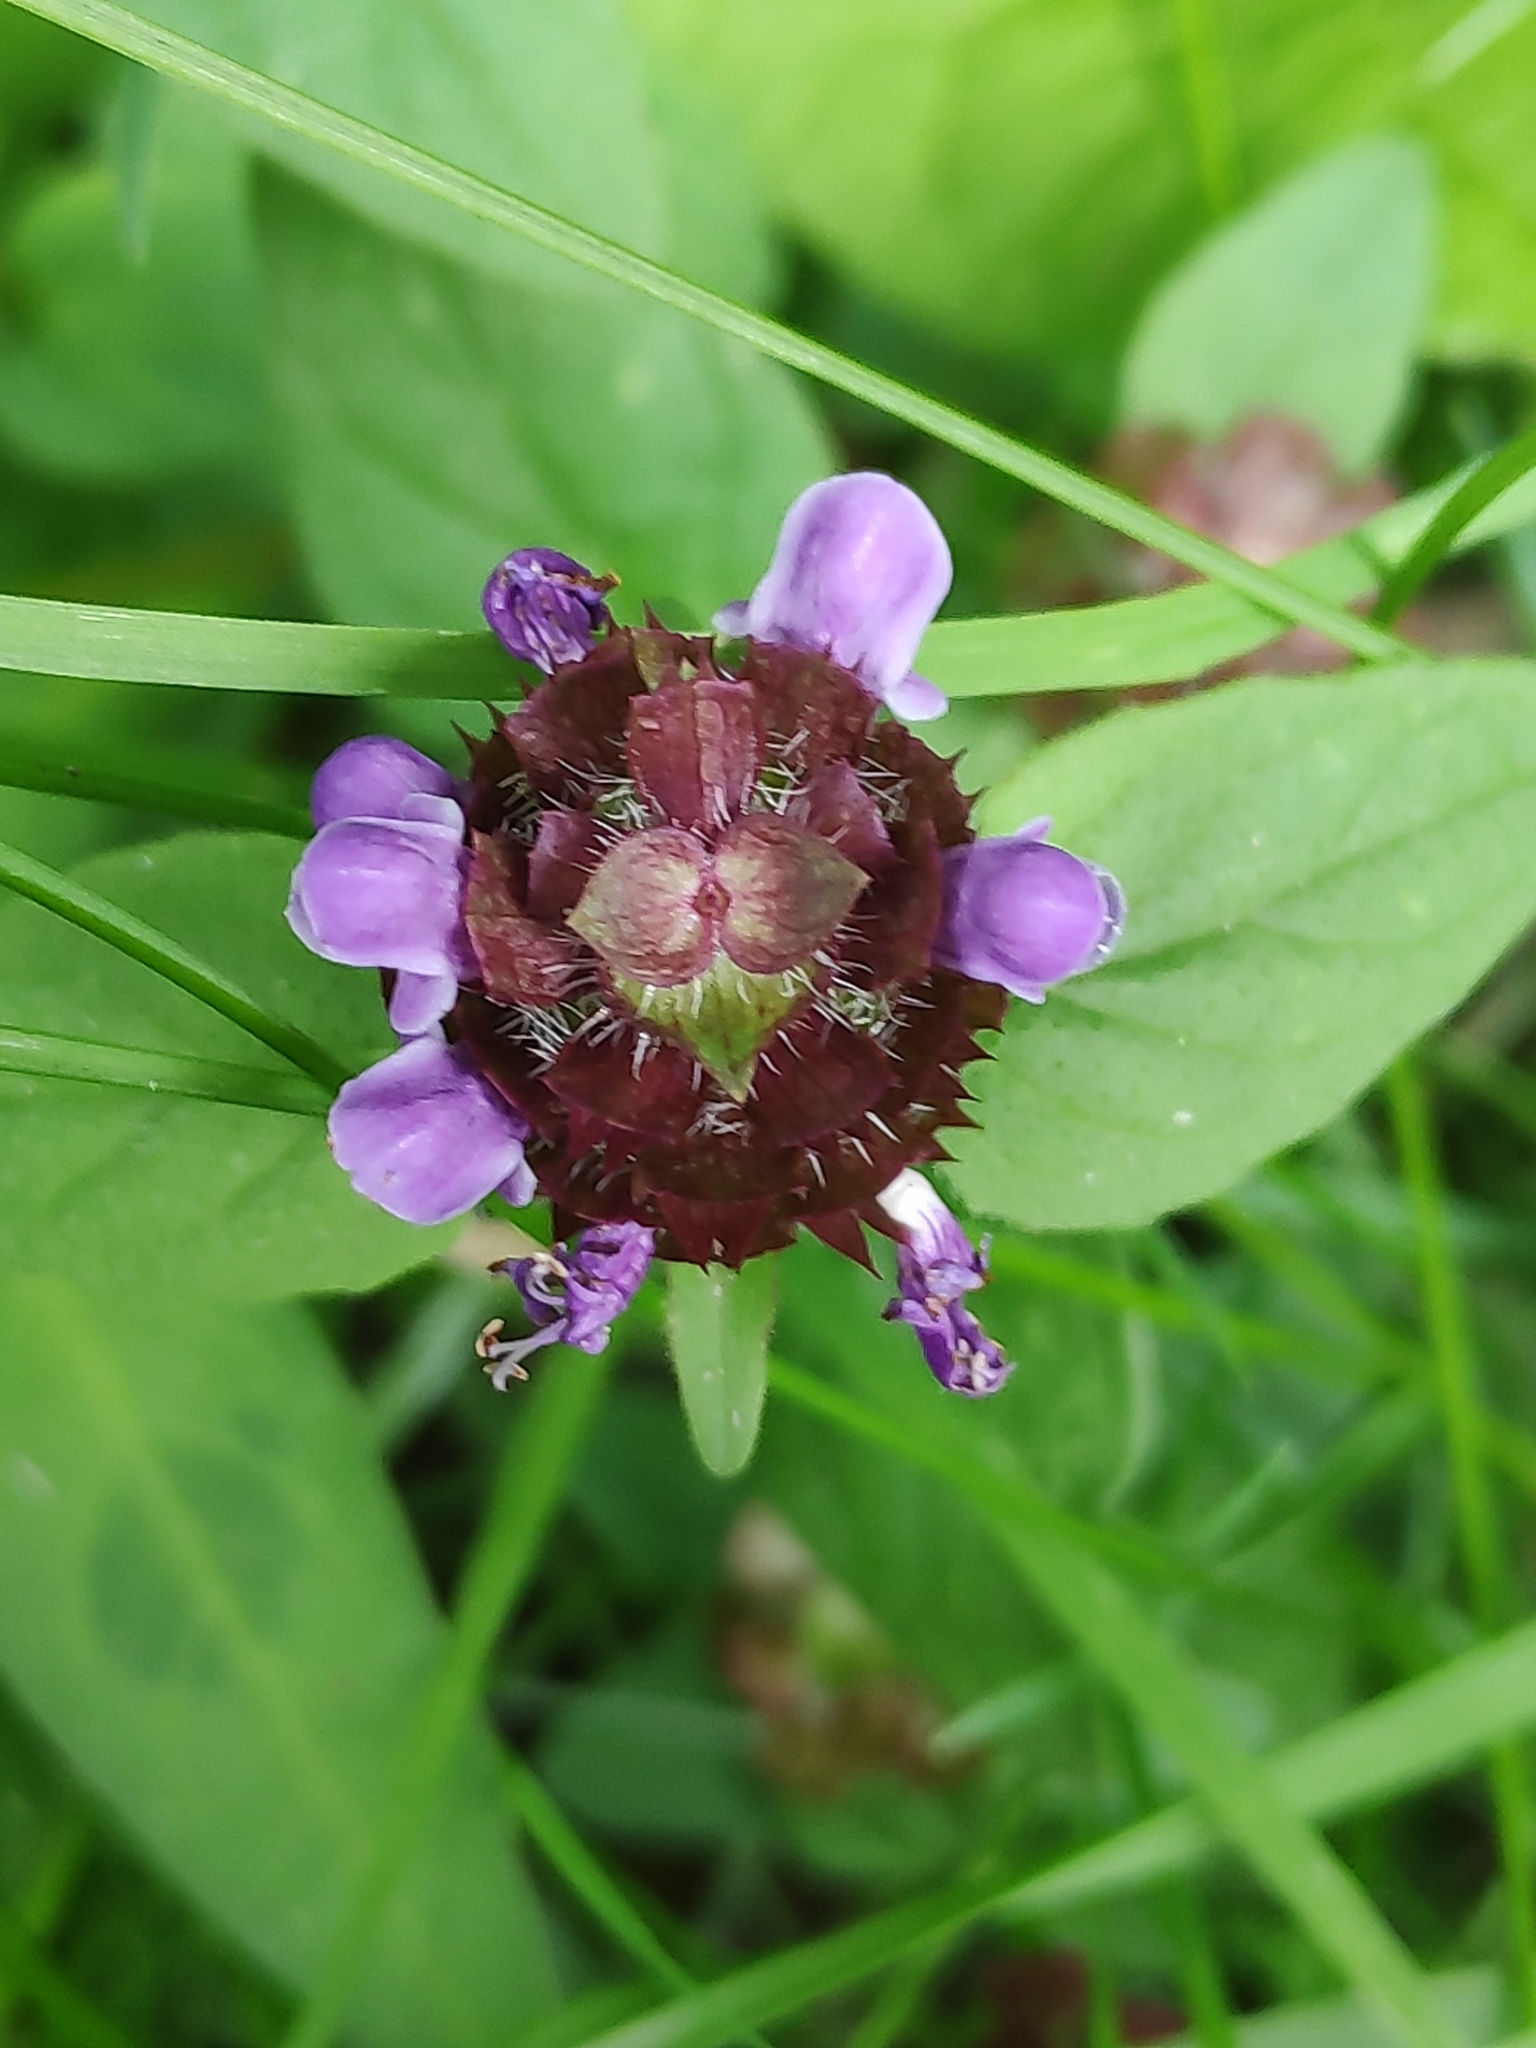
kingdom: Plantae
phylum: Tracheophyta
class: Magnoliopsida
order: Lamiales
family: Lamiaceae
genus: Prunella
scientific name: Prunella vulgaris
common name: Heal-all
